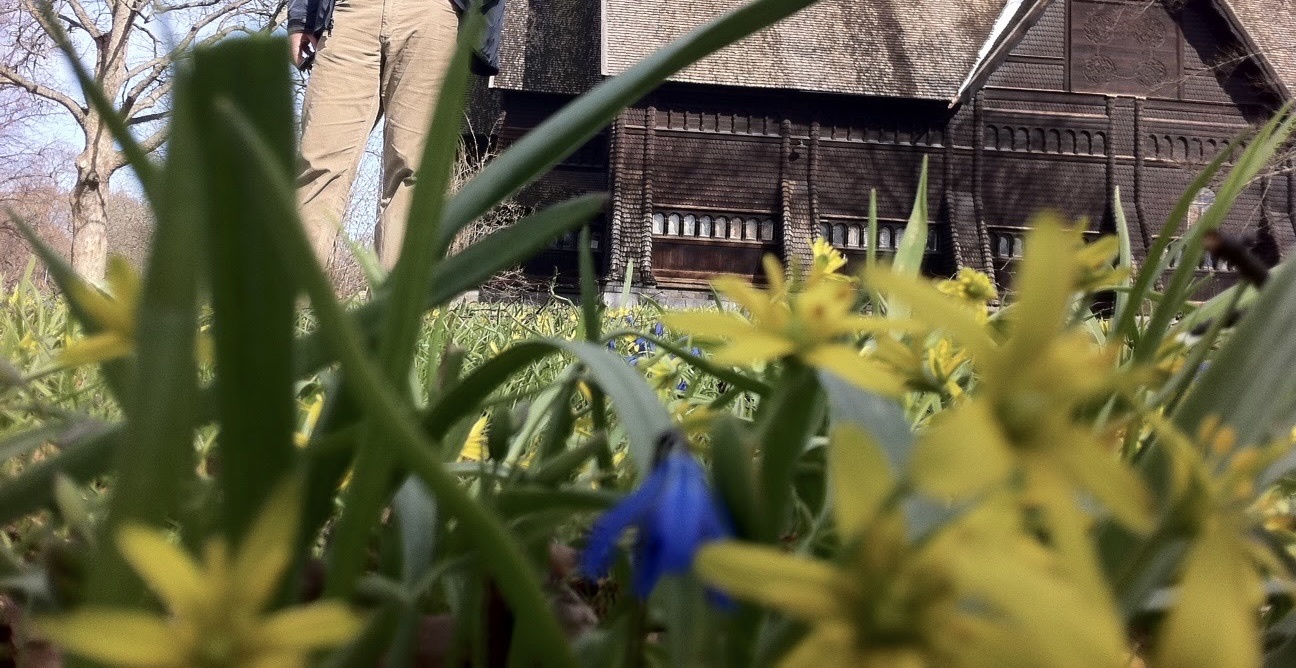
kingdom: Plantae
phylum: Tracheophyta
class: Liliopsida
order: Liliales
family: Liliaceae
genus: Gagea
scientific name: Gagea lutea
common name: Yellow star-of-bethlehem
